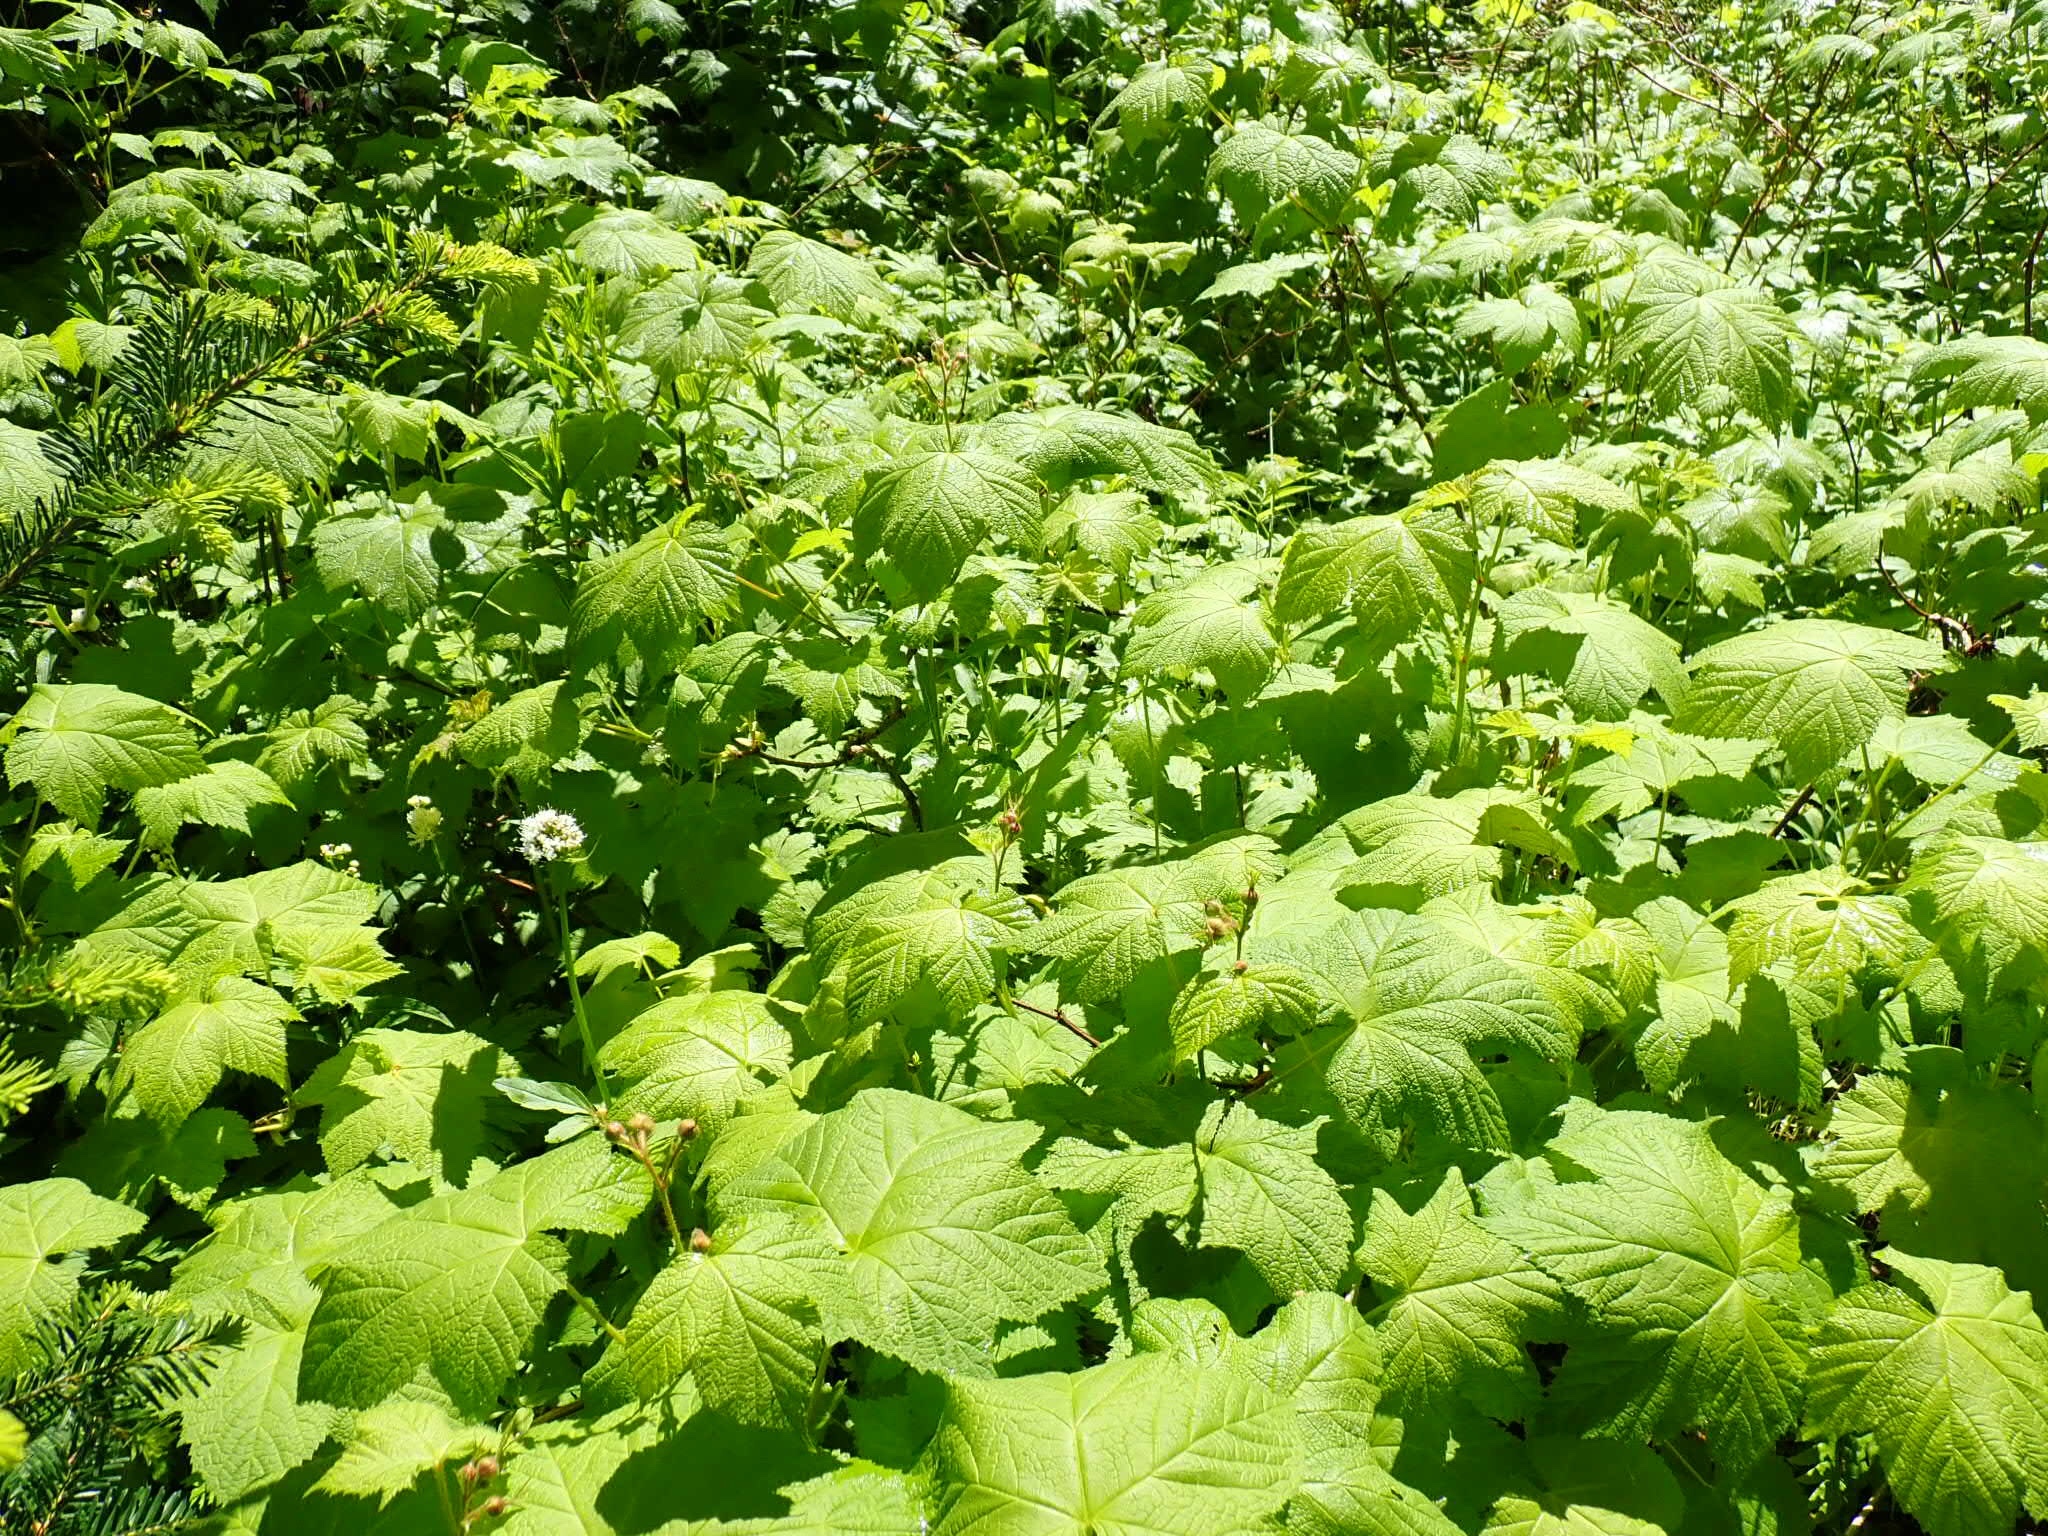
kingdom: Plantae
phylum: Tracheophyta
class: Magnoliopsida
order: Rosales
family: Rosaceae
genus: Rubus
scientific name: Rubus parviflorus
